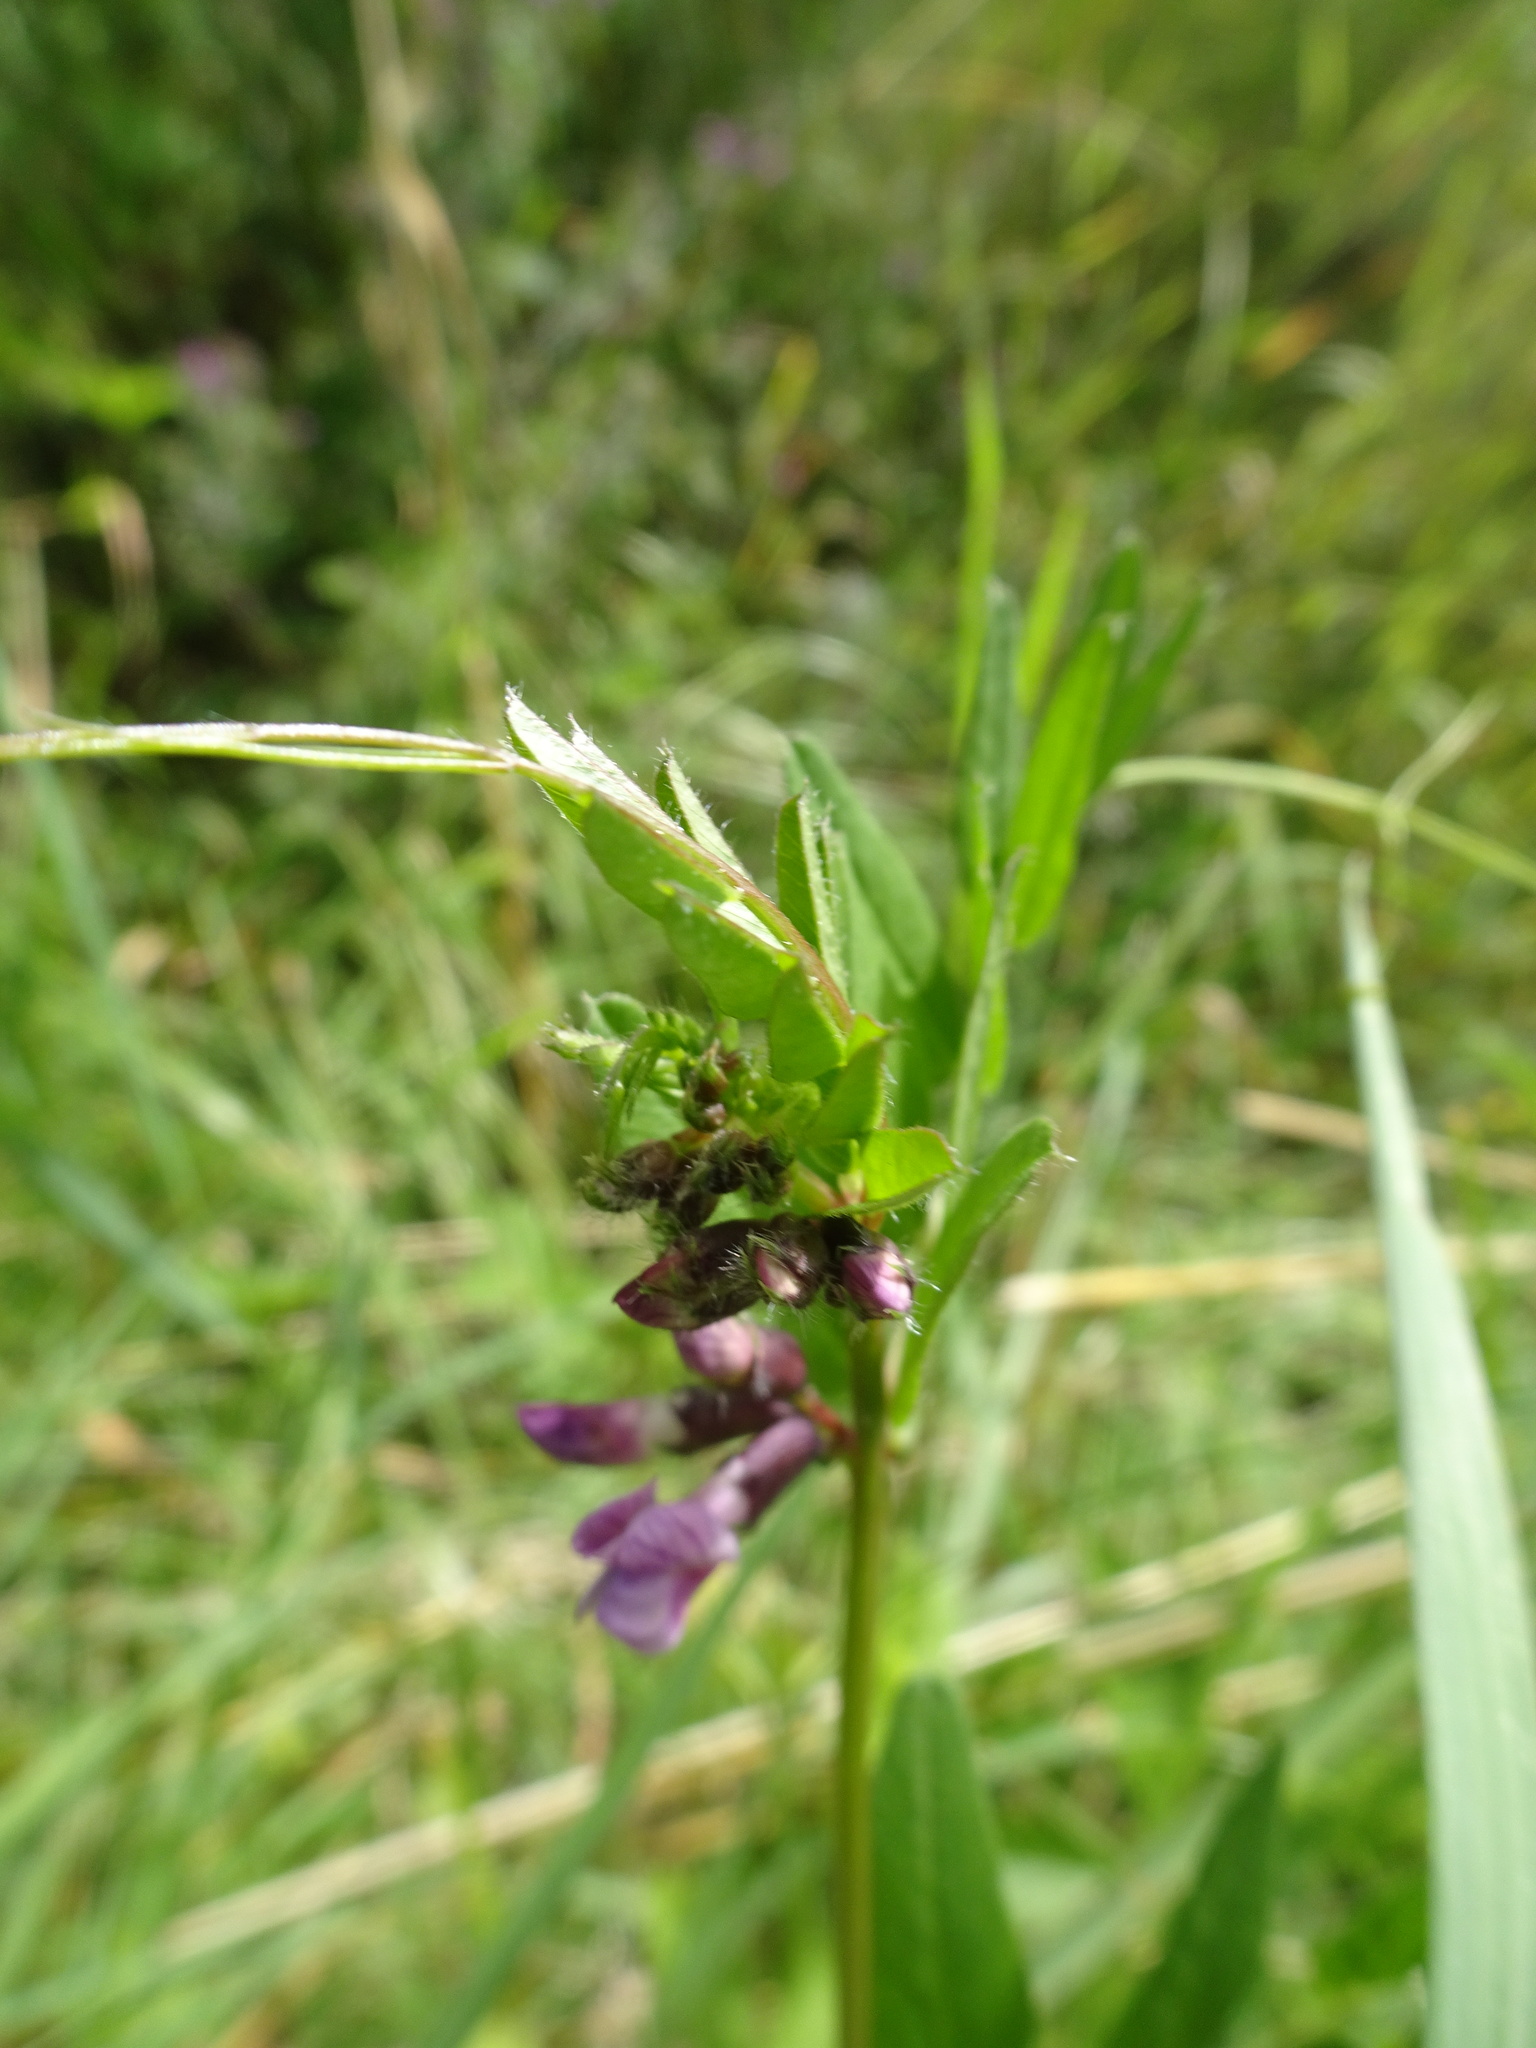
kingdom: Plantae
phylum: Tracheophyta
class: Magnoliopsida
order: Fabales
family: Fabaceae
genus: Vicia
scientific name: Vicia sepium
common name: Bush vetch
